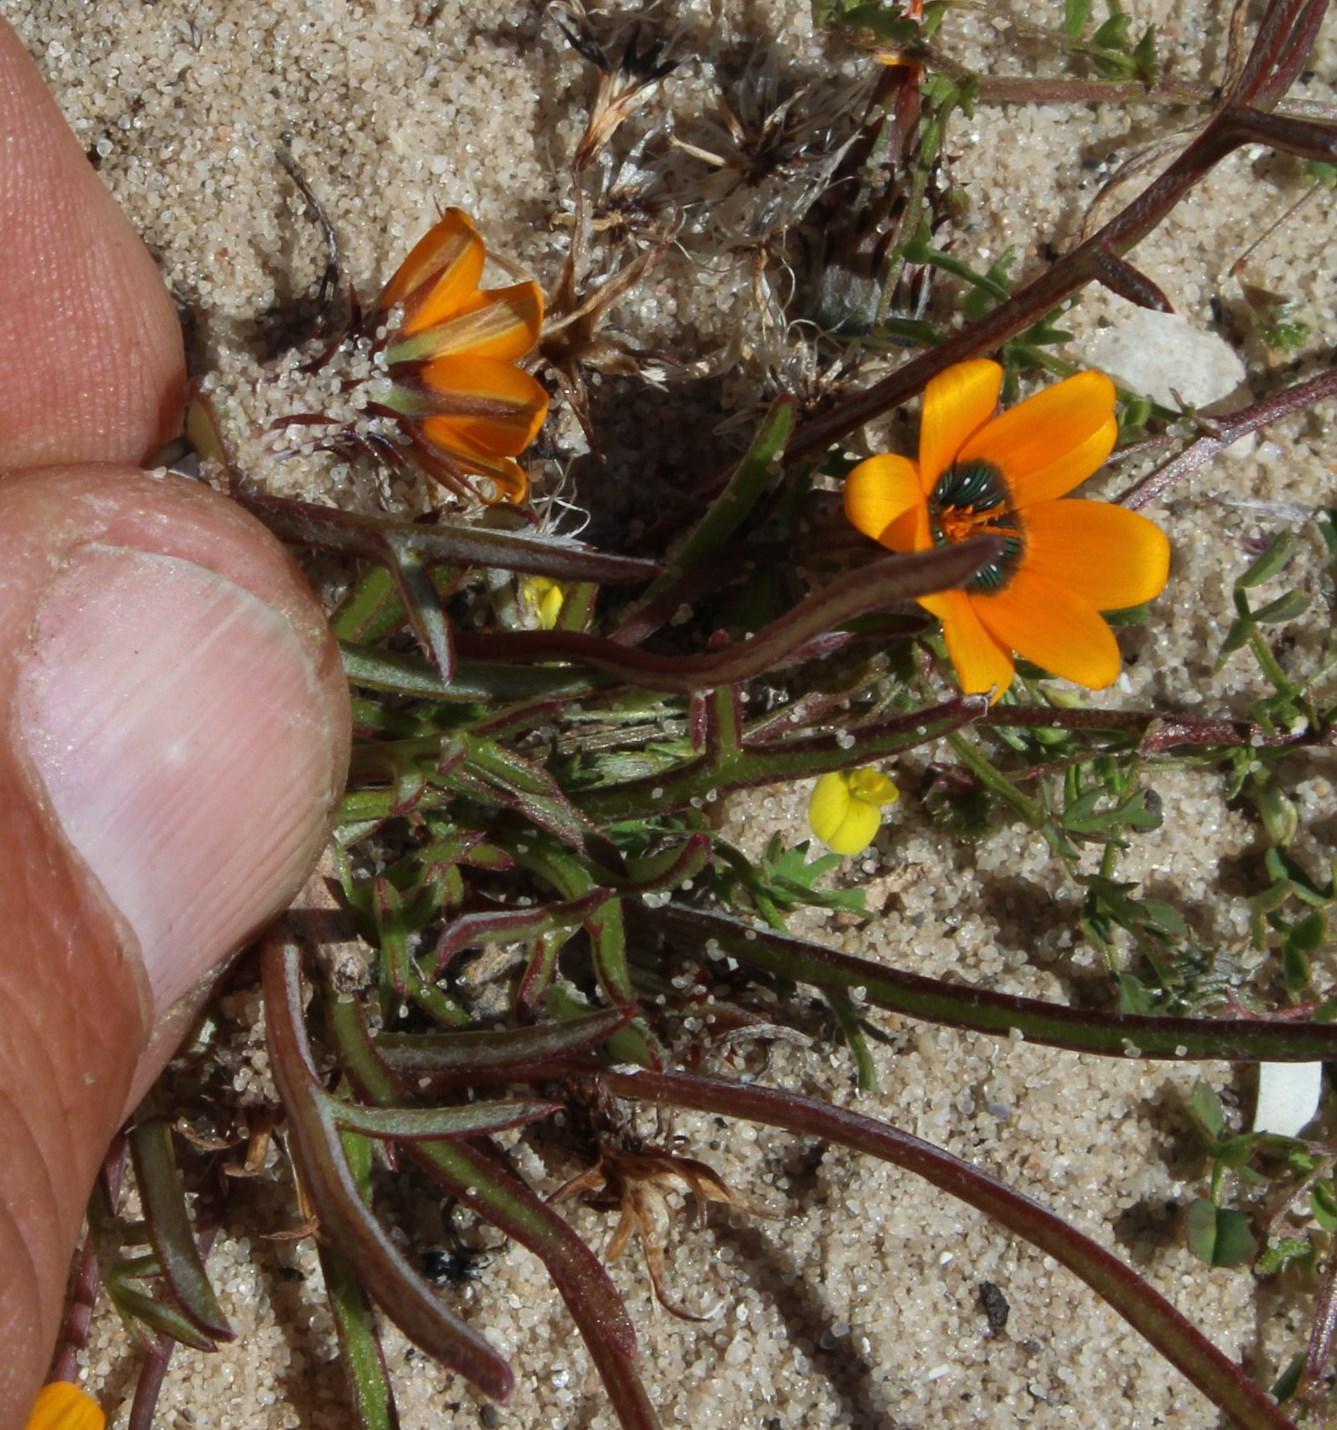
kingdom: Plantae
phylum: Tracheophyta
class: Magnoliopsida
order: Asterales
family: Asteraceae
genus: Gazania
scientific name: Gazania tenuifolia
